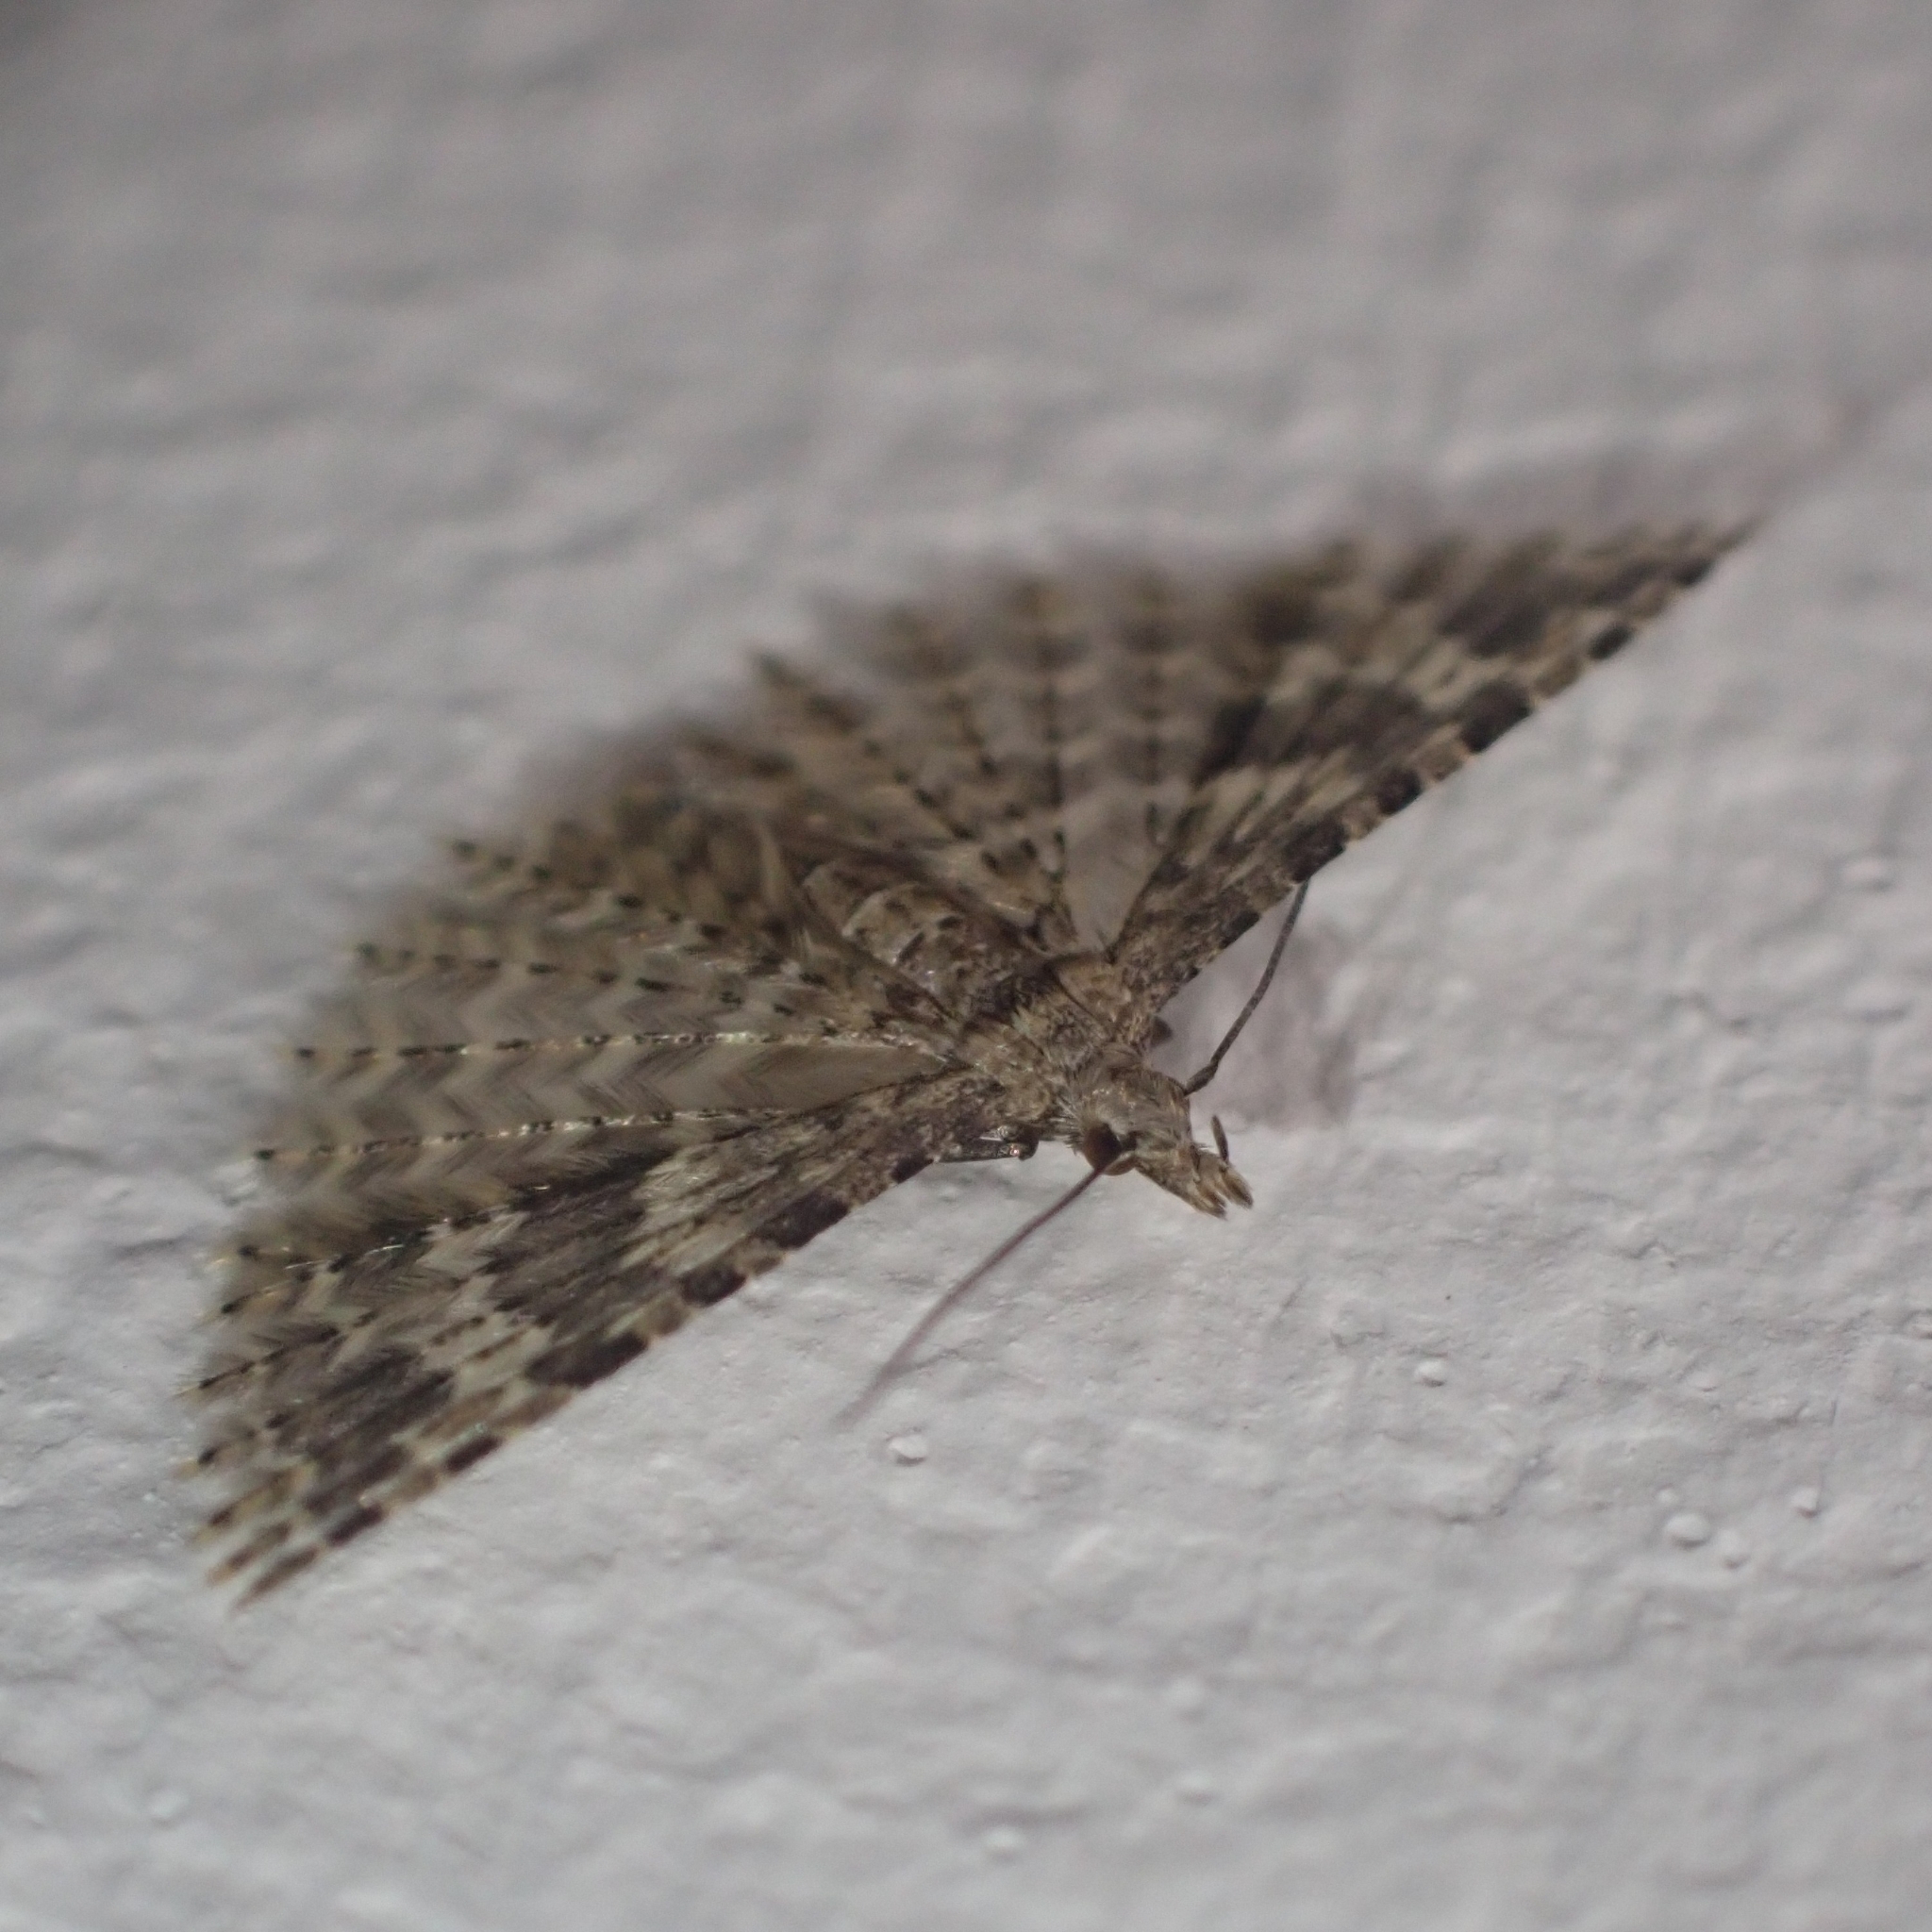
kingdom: Animalia
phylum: Arthropoda
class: Insecta
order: Lepidoptera
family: Alucitidae
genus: Alucita
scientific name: Alucita hexadactyla
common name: Twenty-plume moth
